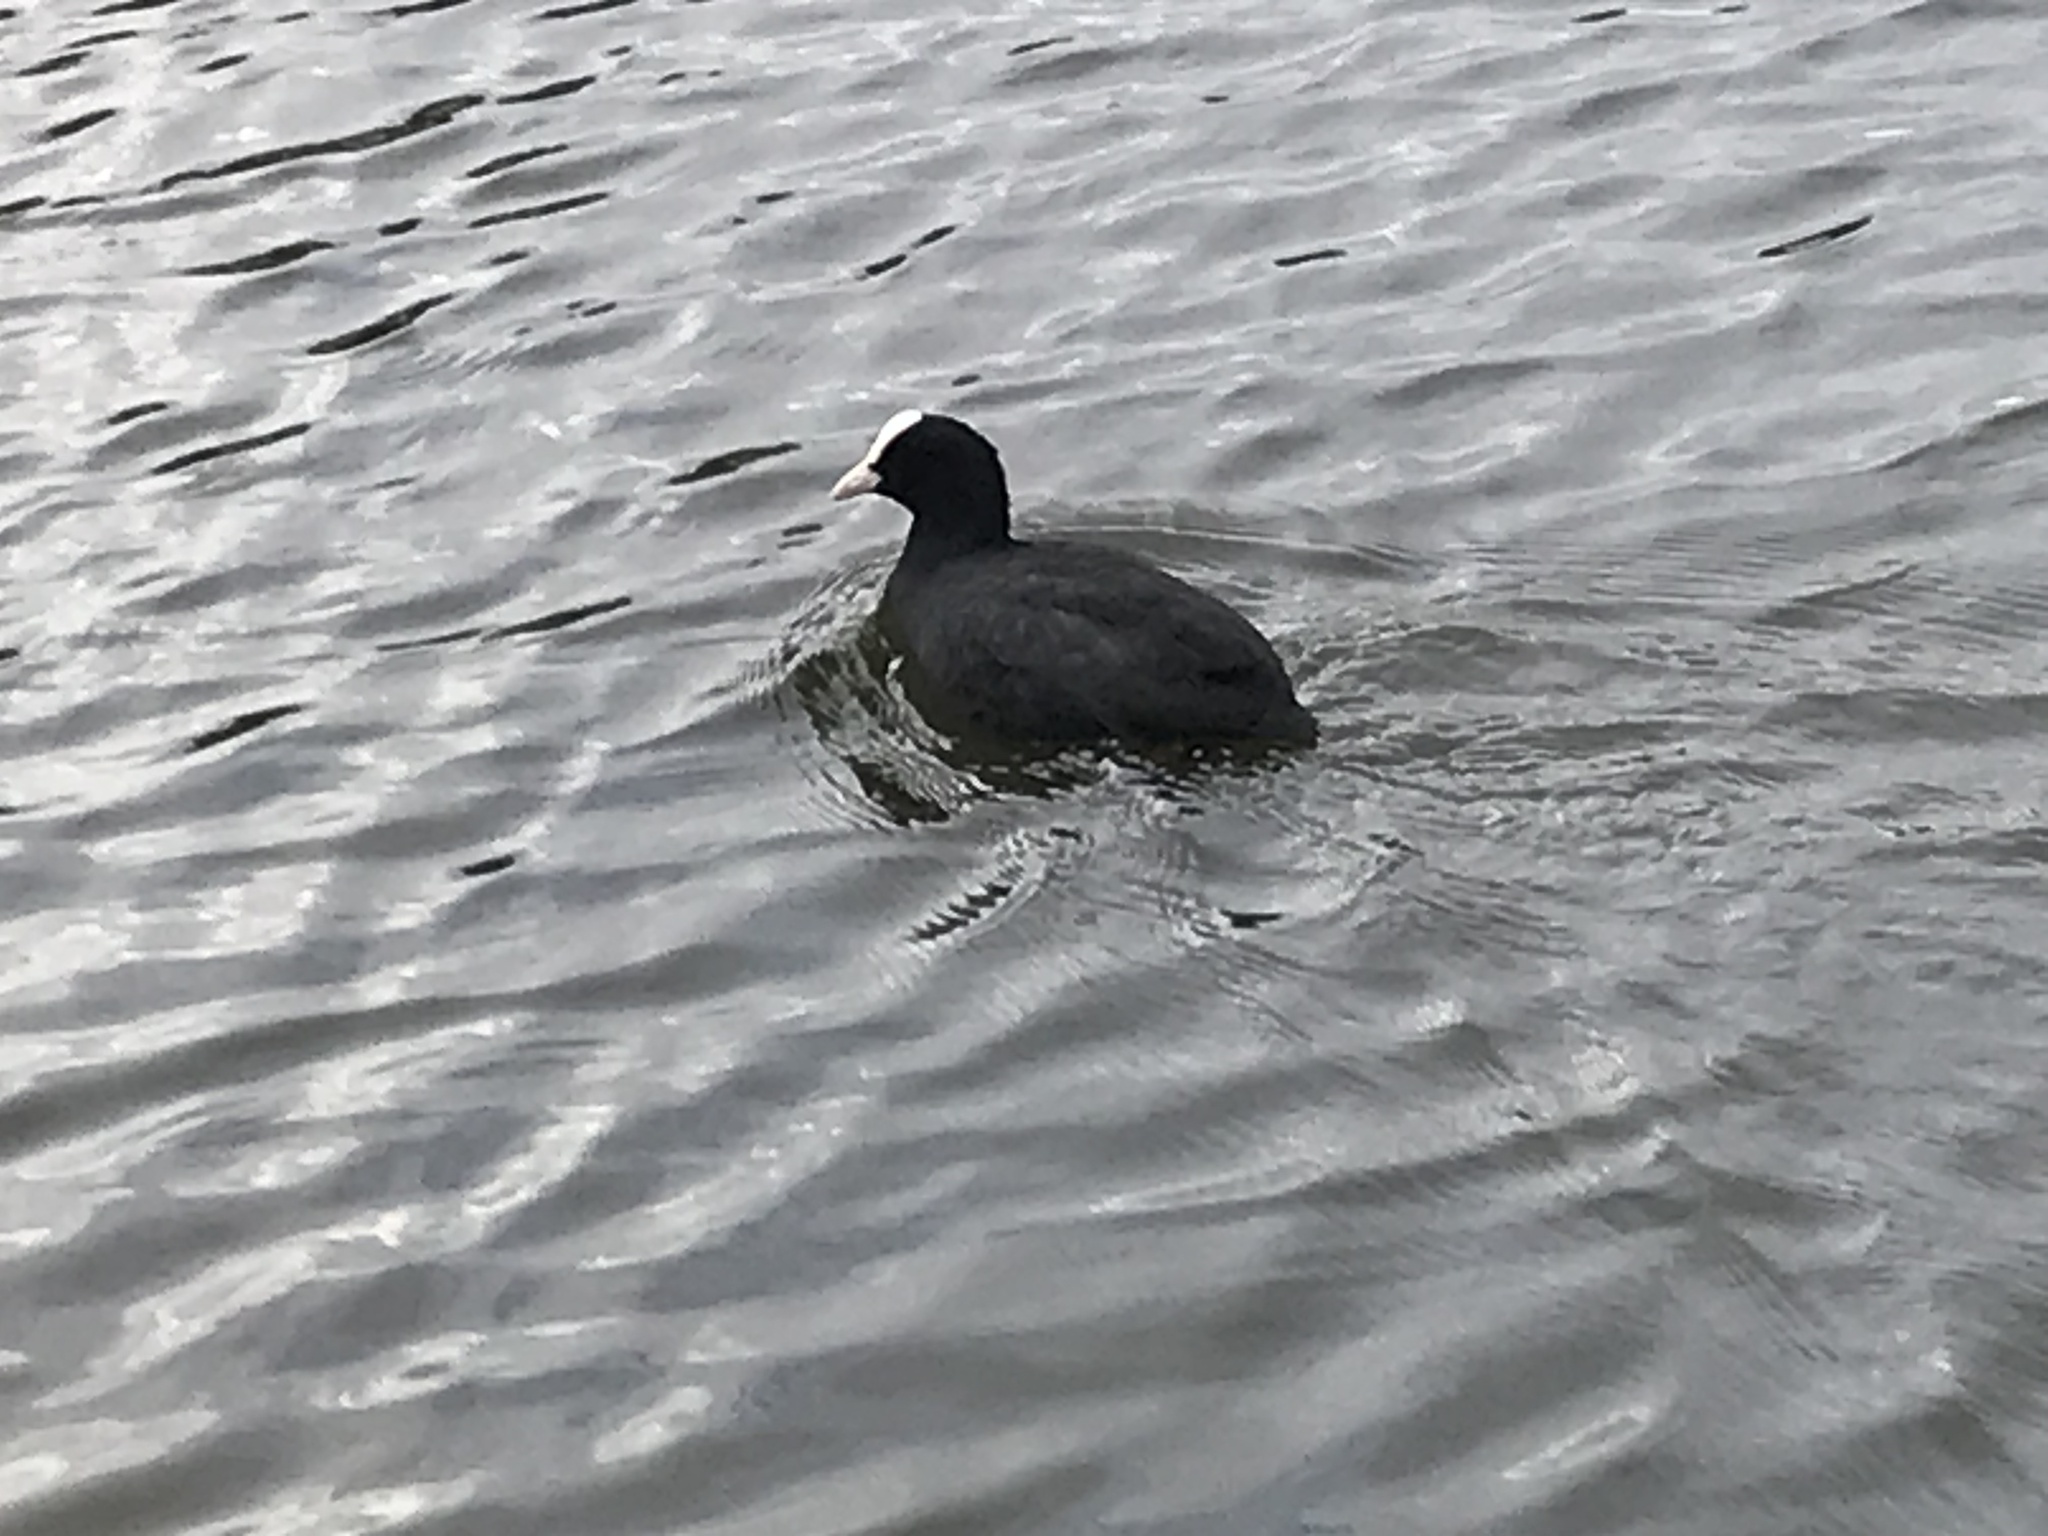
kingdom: Animalia
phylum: Chordata
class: Aves
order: Gruiformes
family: Rallidae
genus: Fulica
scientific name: Fulica atra
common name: Eurasian coot
